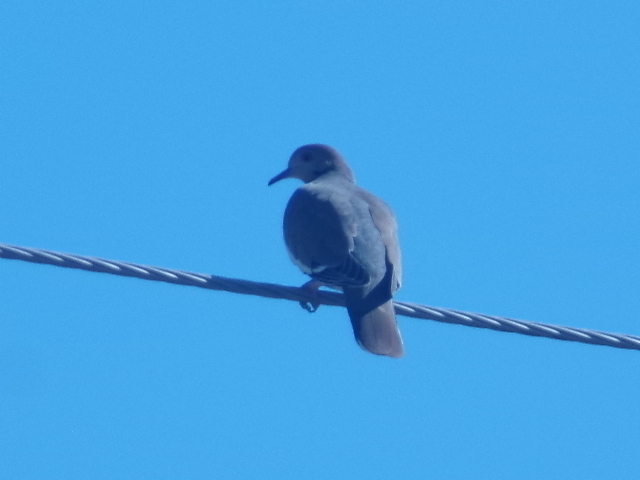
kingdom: Animalia
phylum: Chordata
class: Aves
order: Columbiformes
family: Columbidae
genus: Zenaida
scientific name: Zenaida asiatica
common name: White-winged dove
